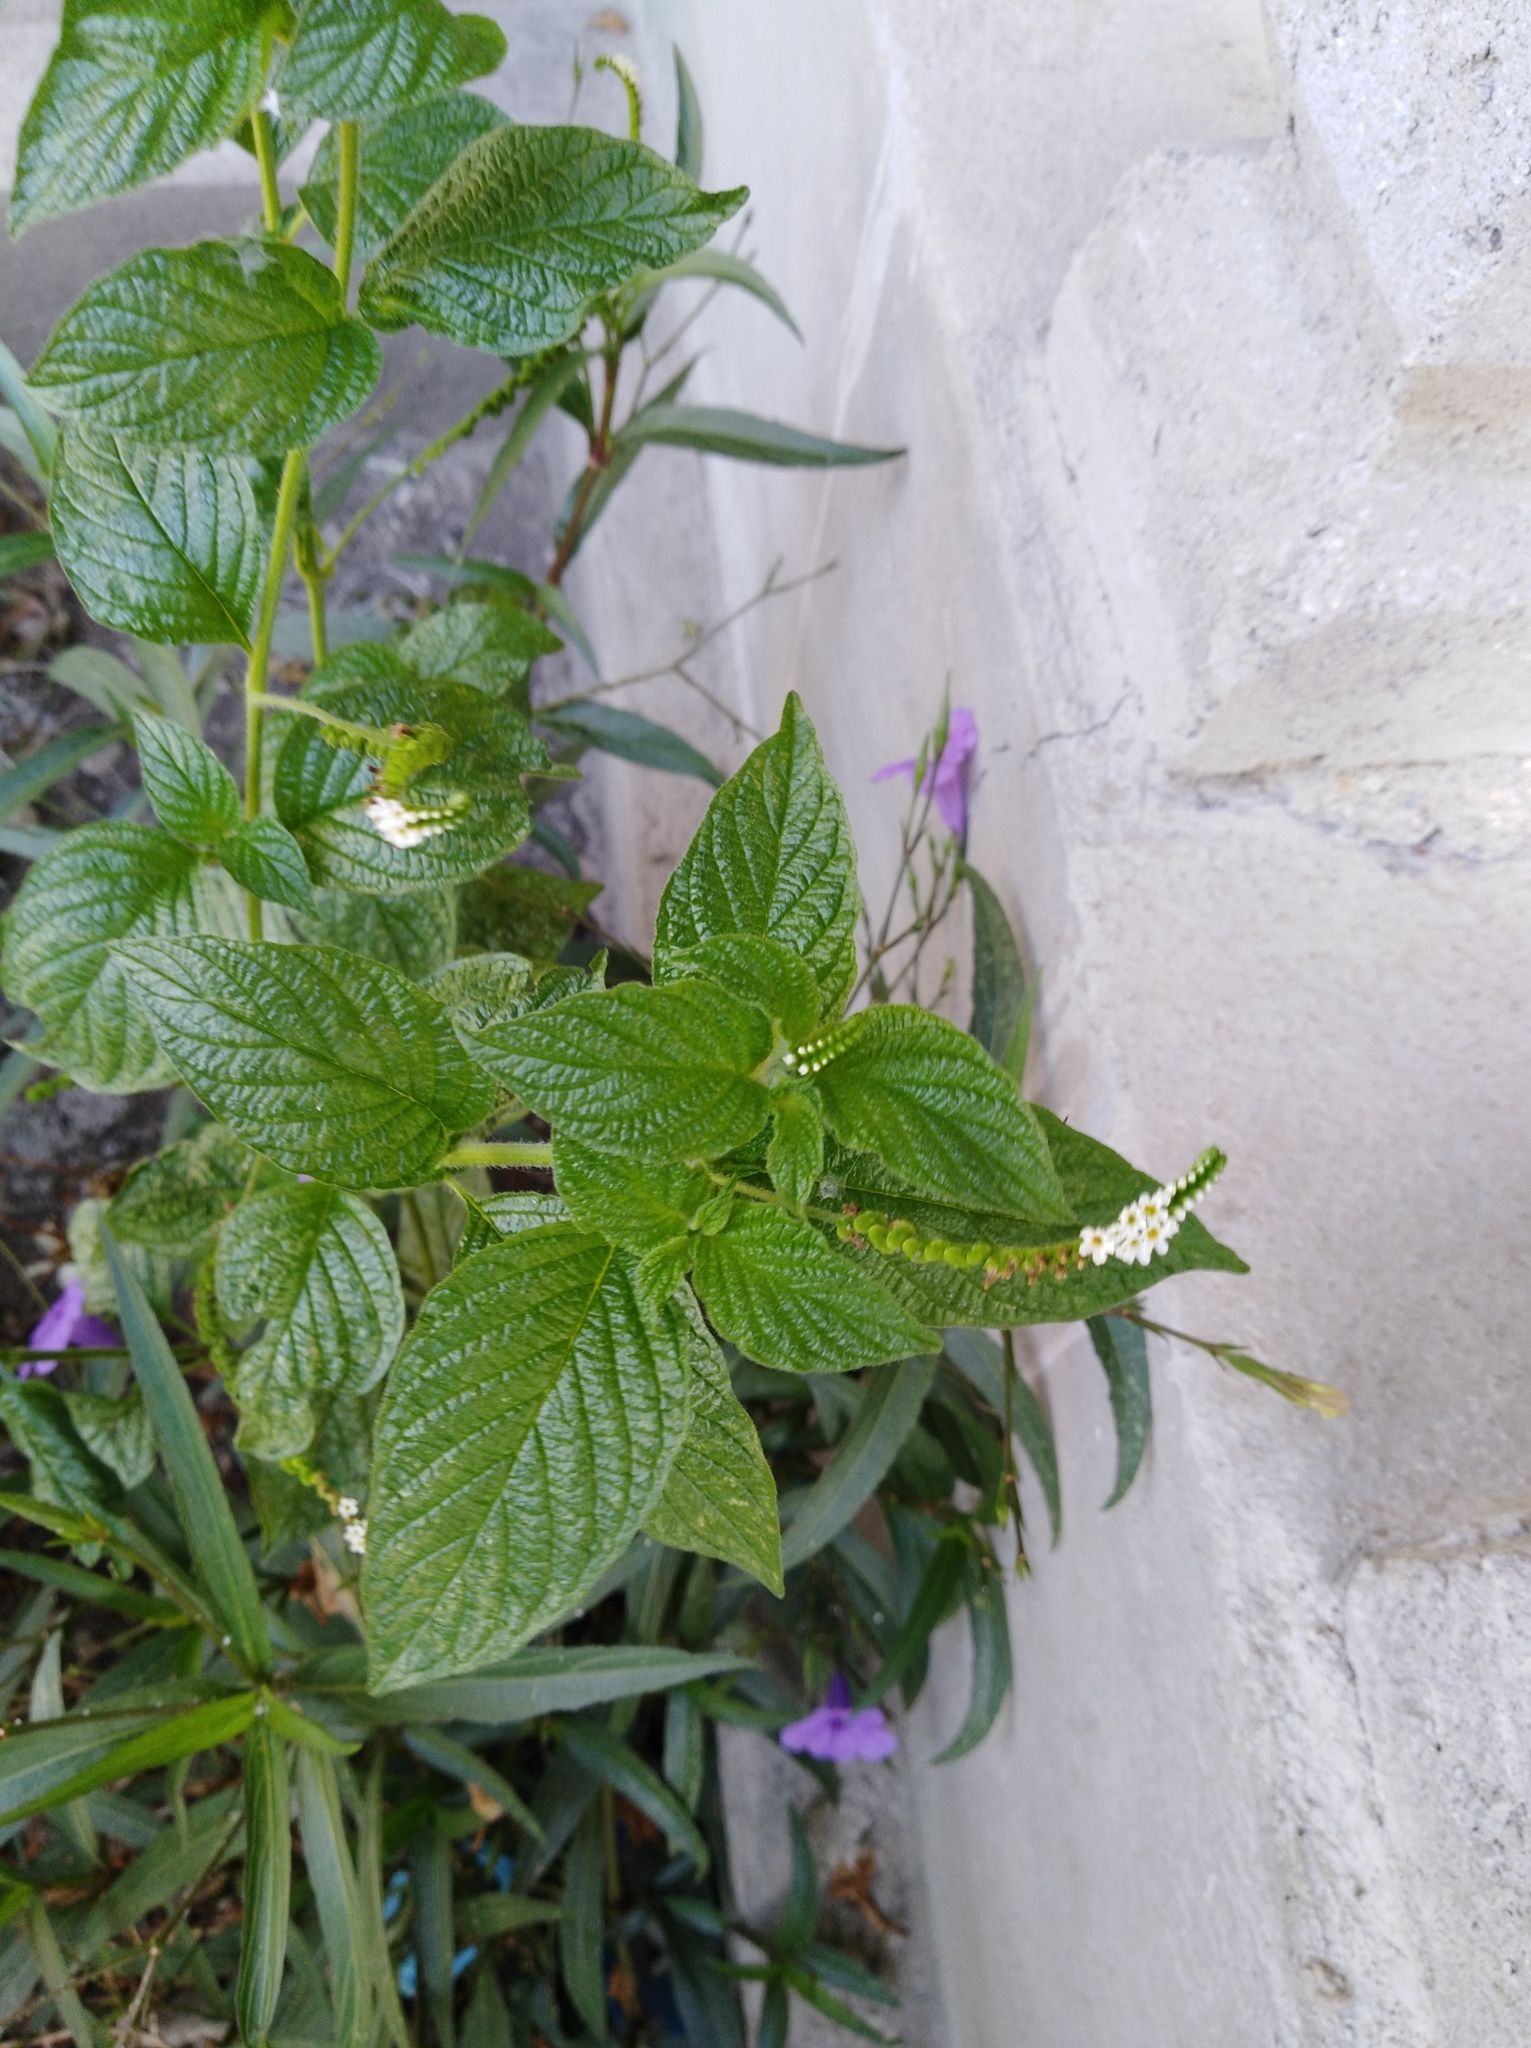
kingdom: Plantae
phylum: Tracheophyta
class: Magnoliopsida
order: Boraginales
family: Heliotropiaceae
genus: Heliotropium
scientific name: Heliotropium angiospermum
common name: Eye bright
